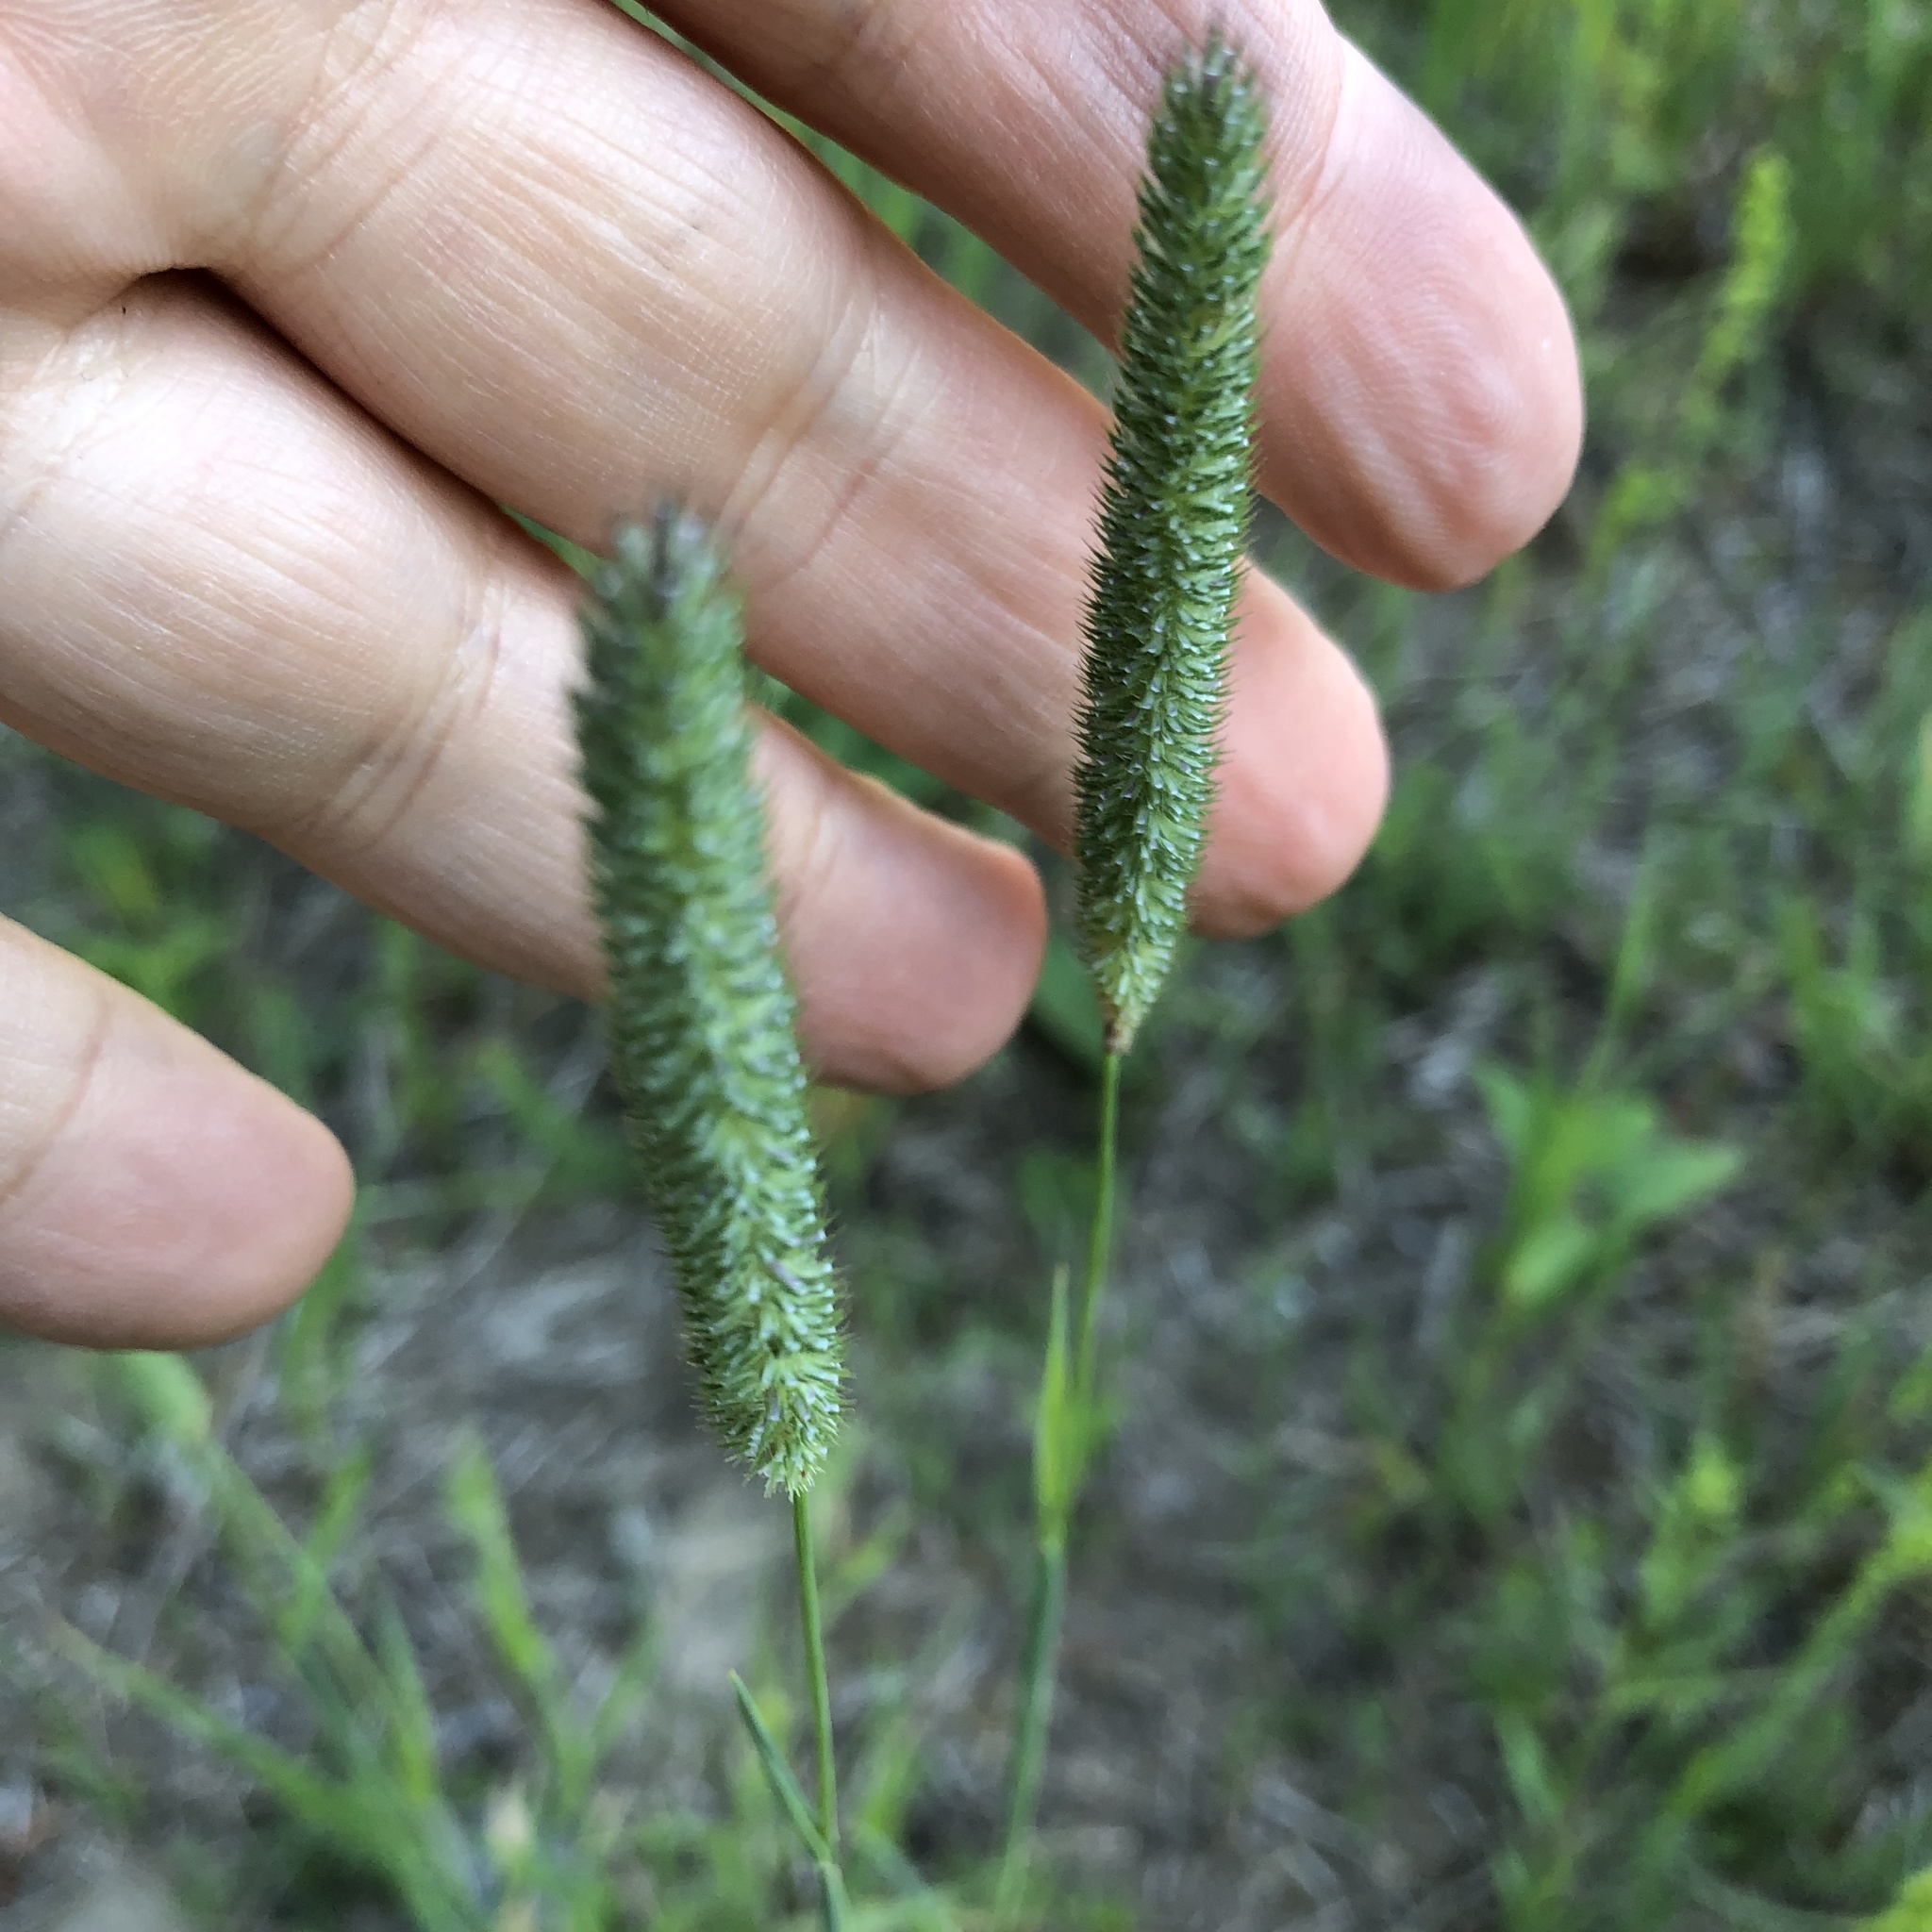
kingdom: Plantae
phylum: Tracheophyta
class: Liliopsida
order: Poales
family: Poaceae
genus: Phleum
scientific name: Phleum pratense
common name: Timothy grass
